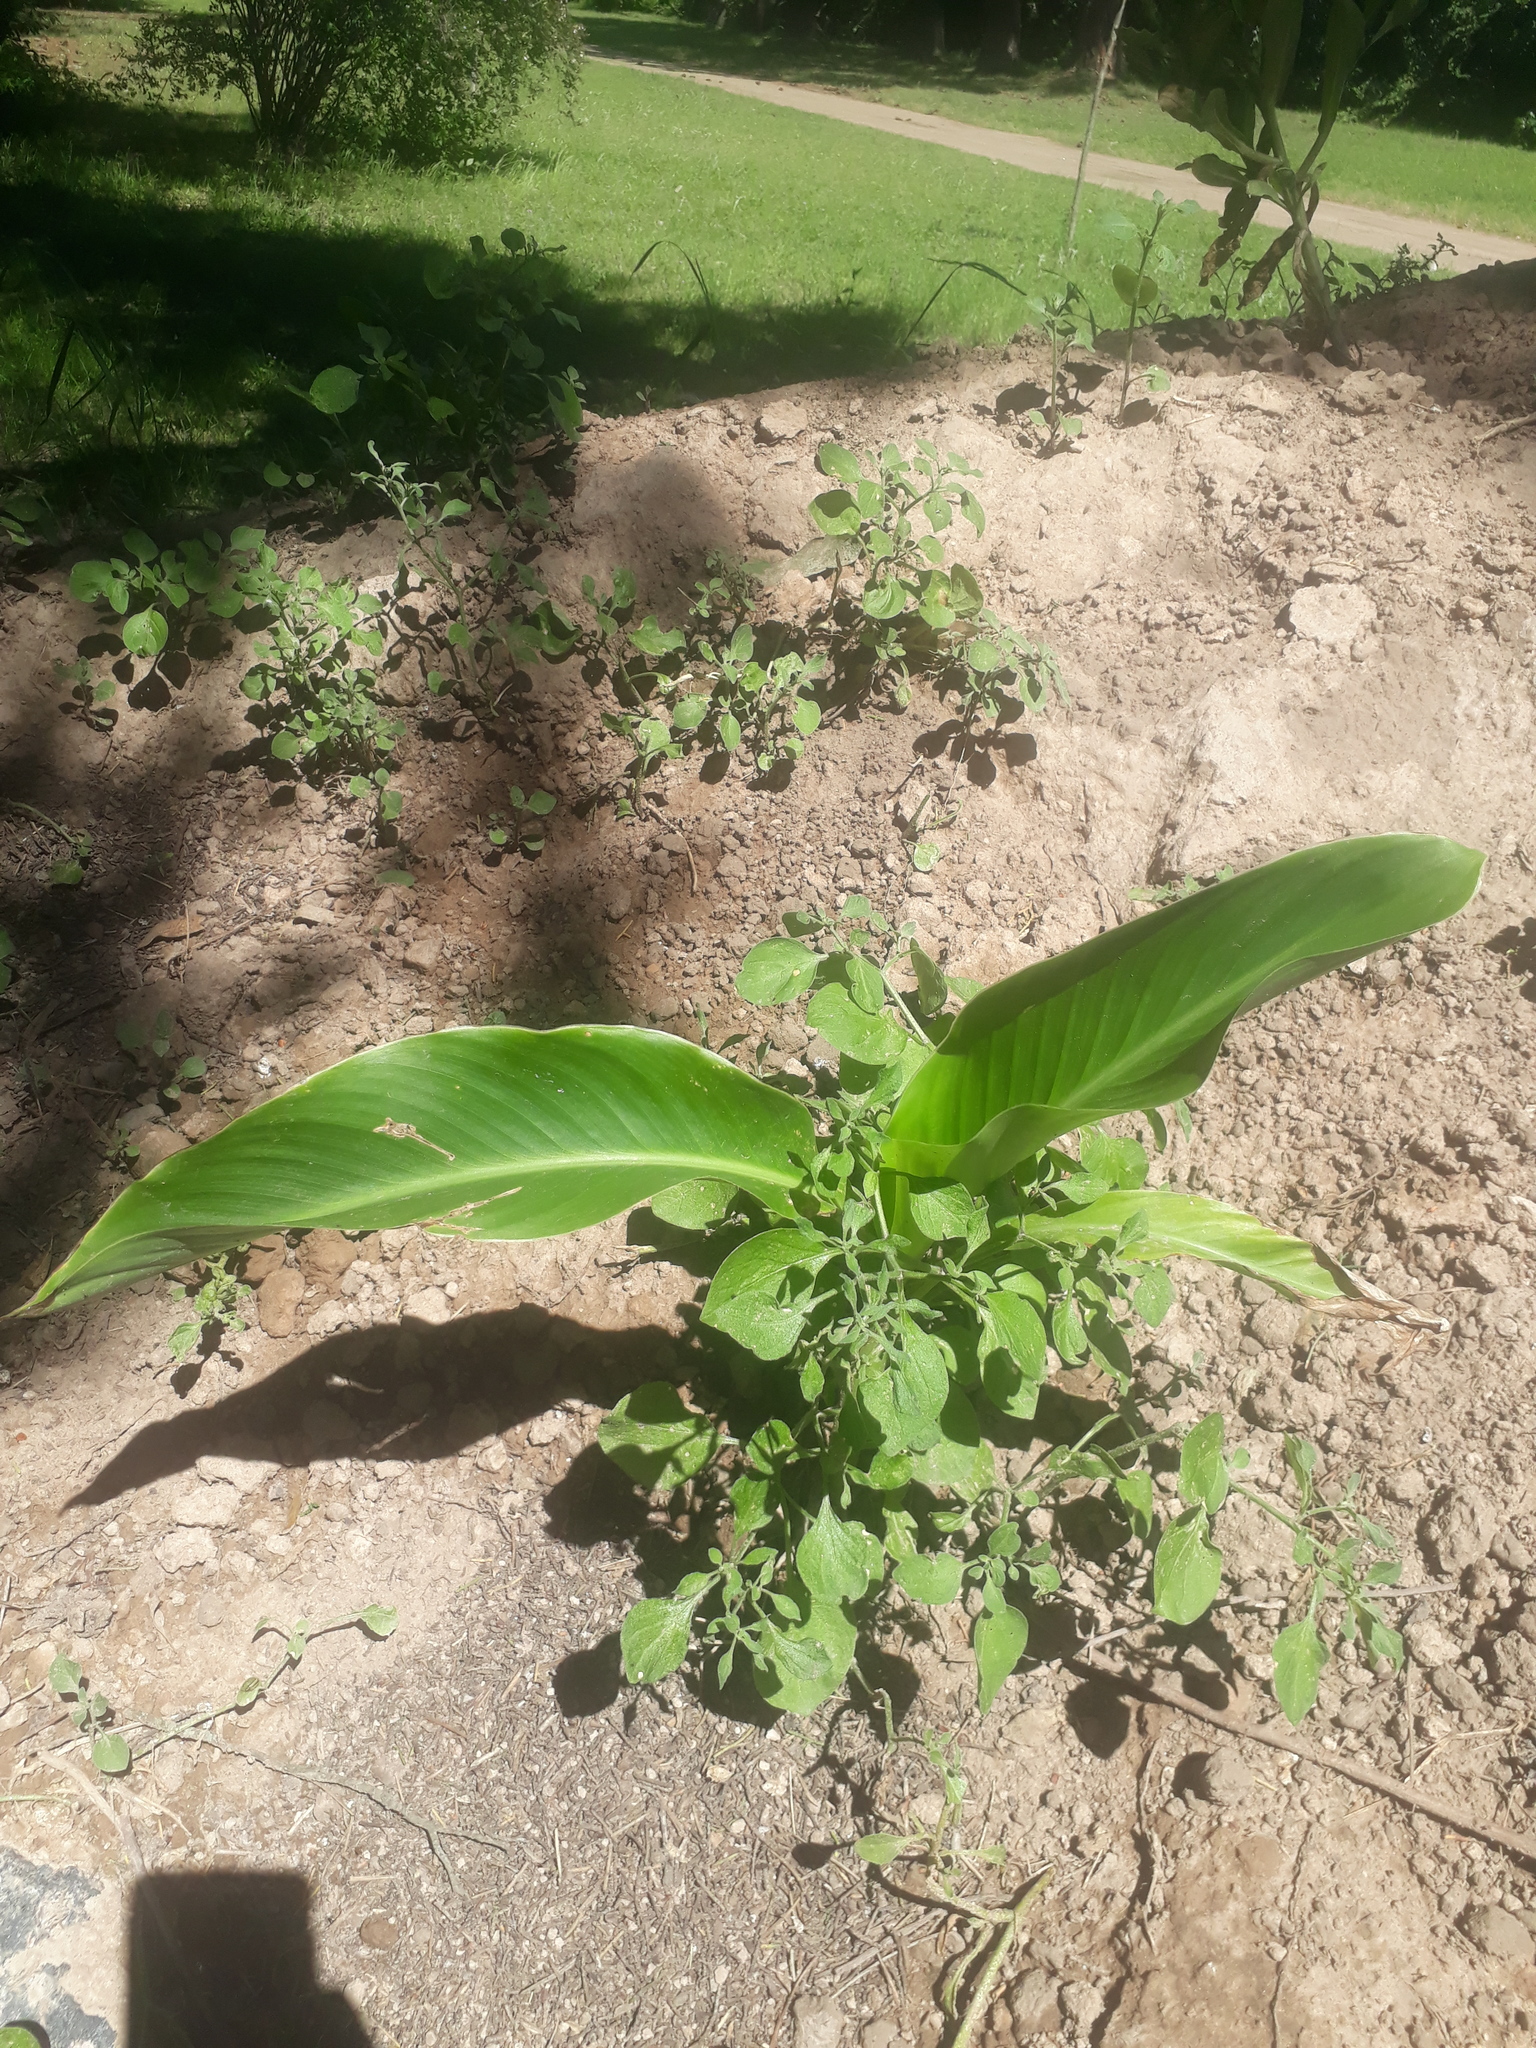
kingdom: Plantae
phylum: Tracheophyta
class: Liliopsida
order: Zingiberales
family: Cannaceae
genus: Canna
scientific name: Canna indica
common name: Indian shot
